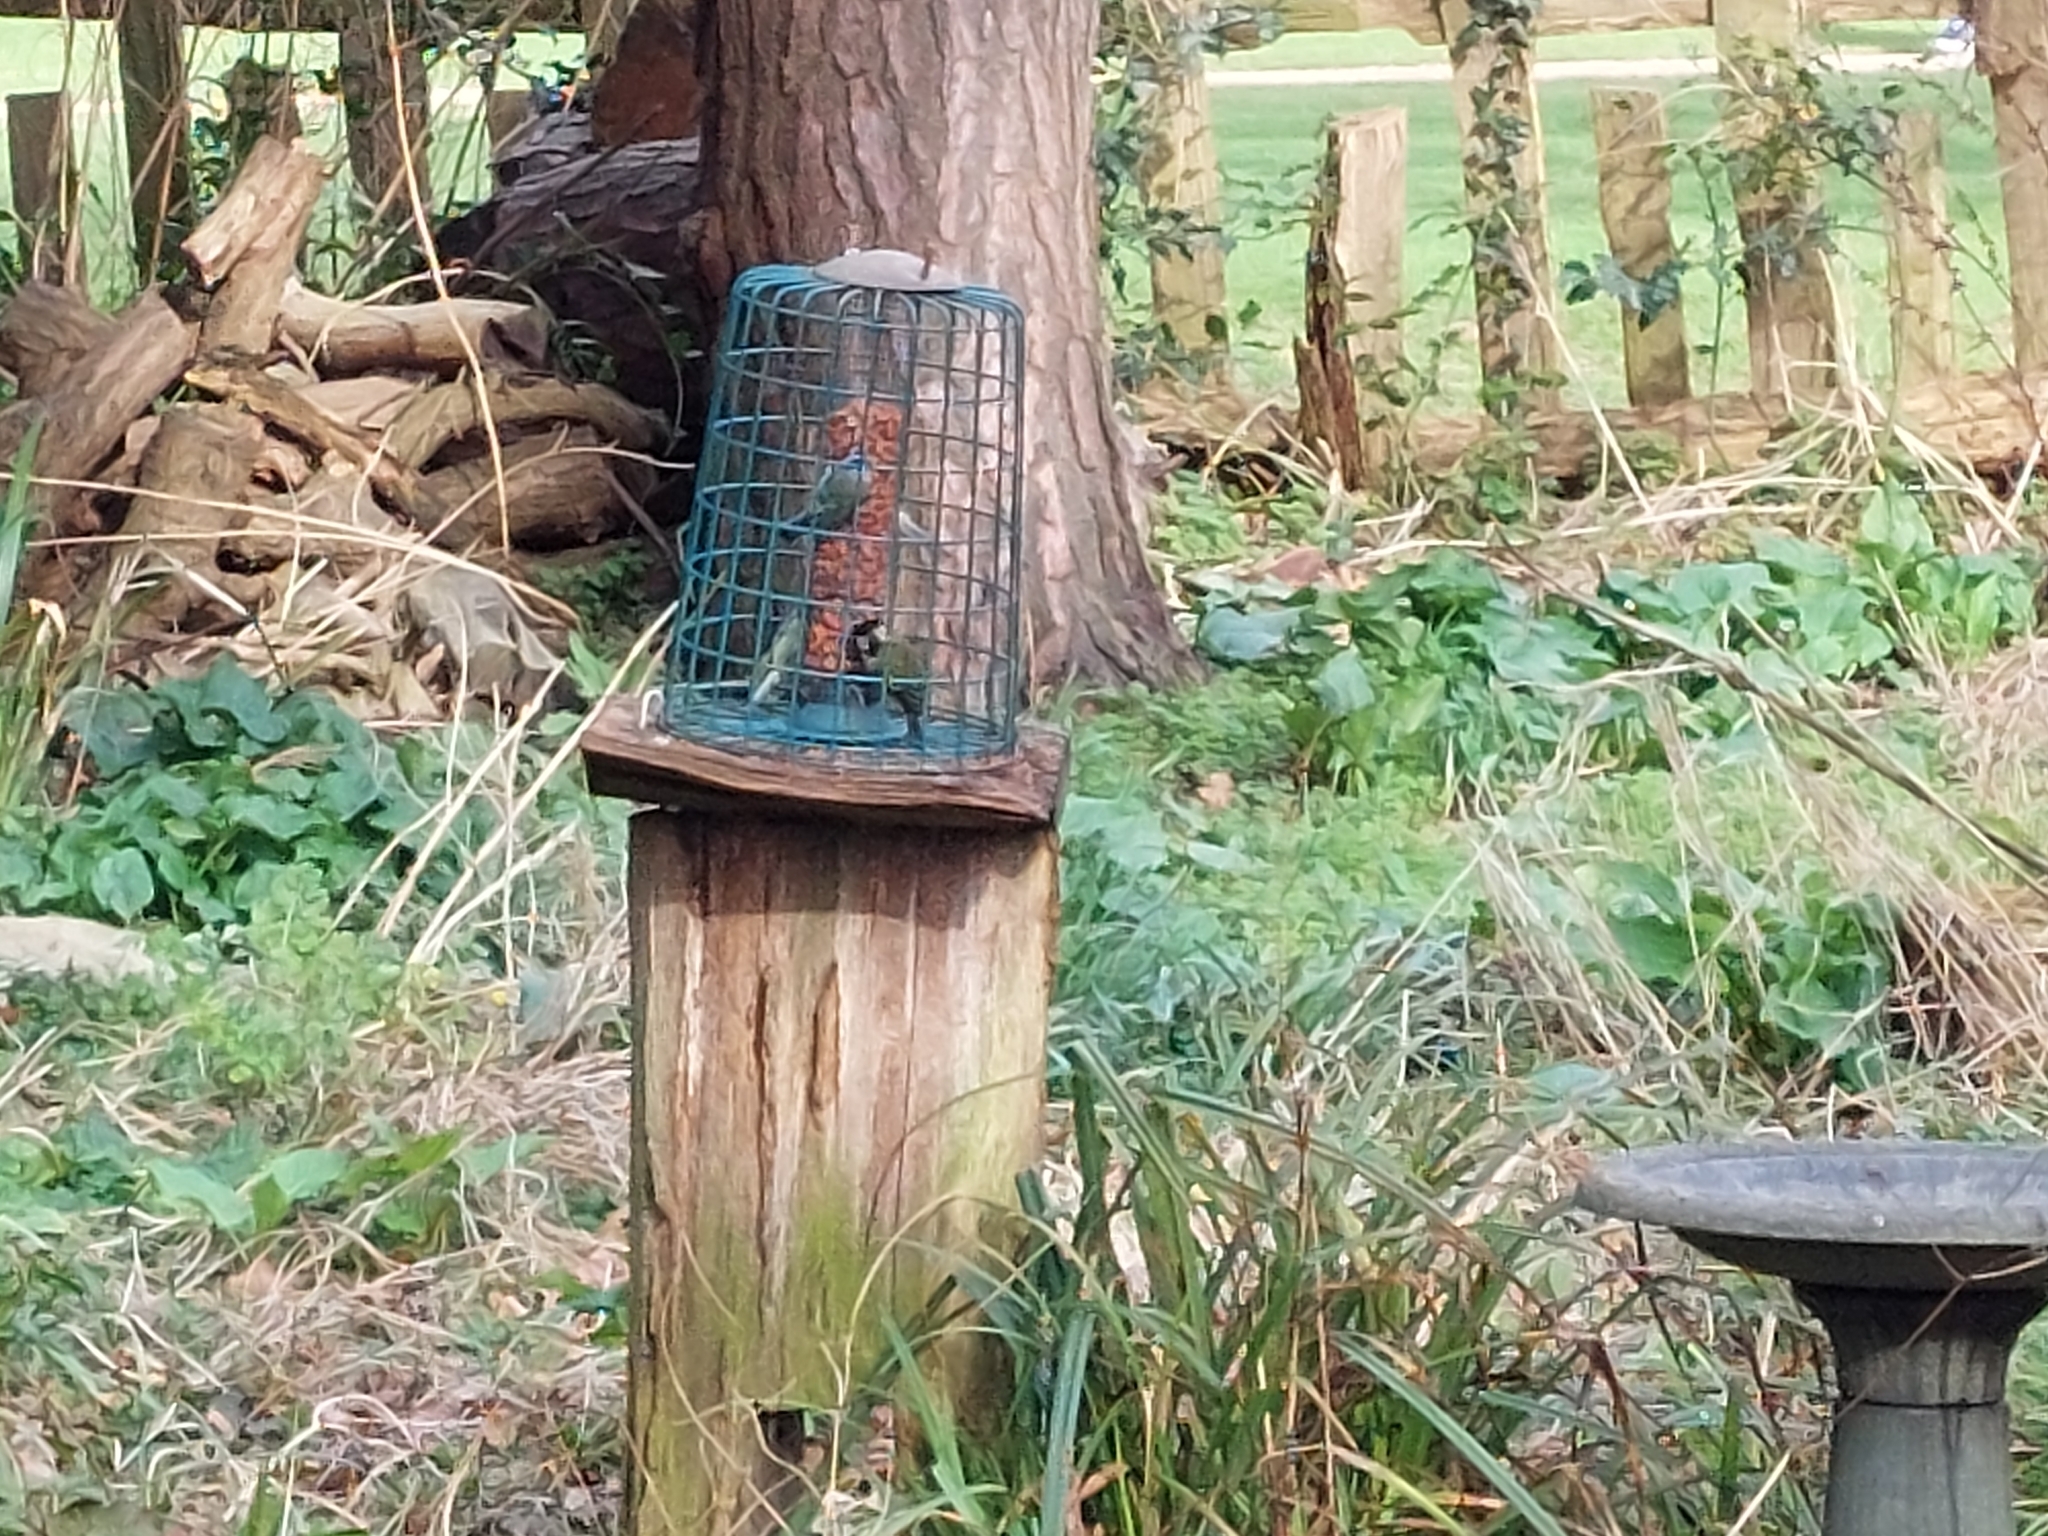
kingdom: Animalia
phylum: Chordata
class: Aves
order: Passeriformes
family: Paridae
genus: Parus
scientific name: Parus major
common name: Great tit
